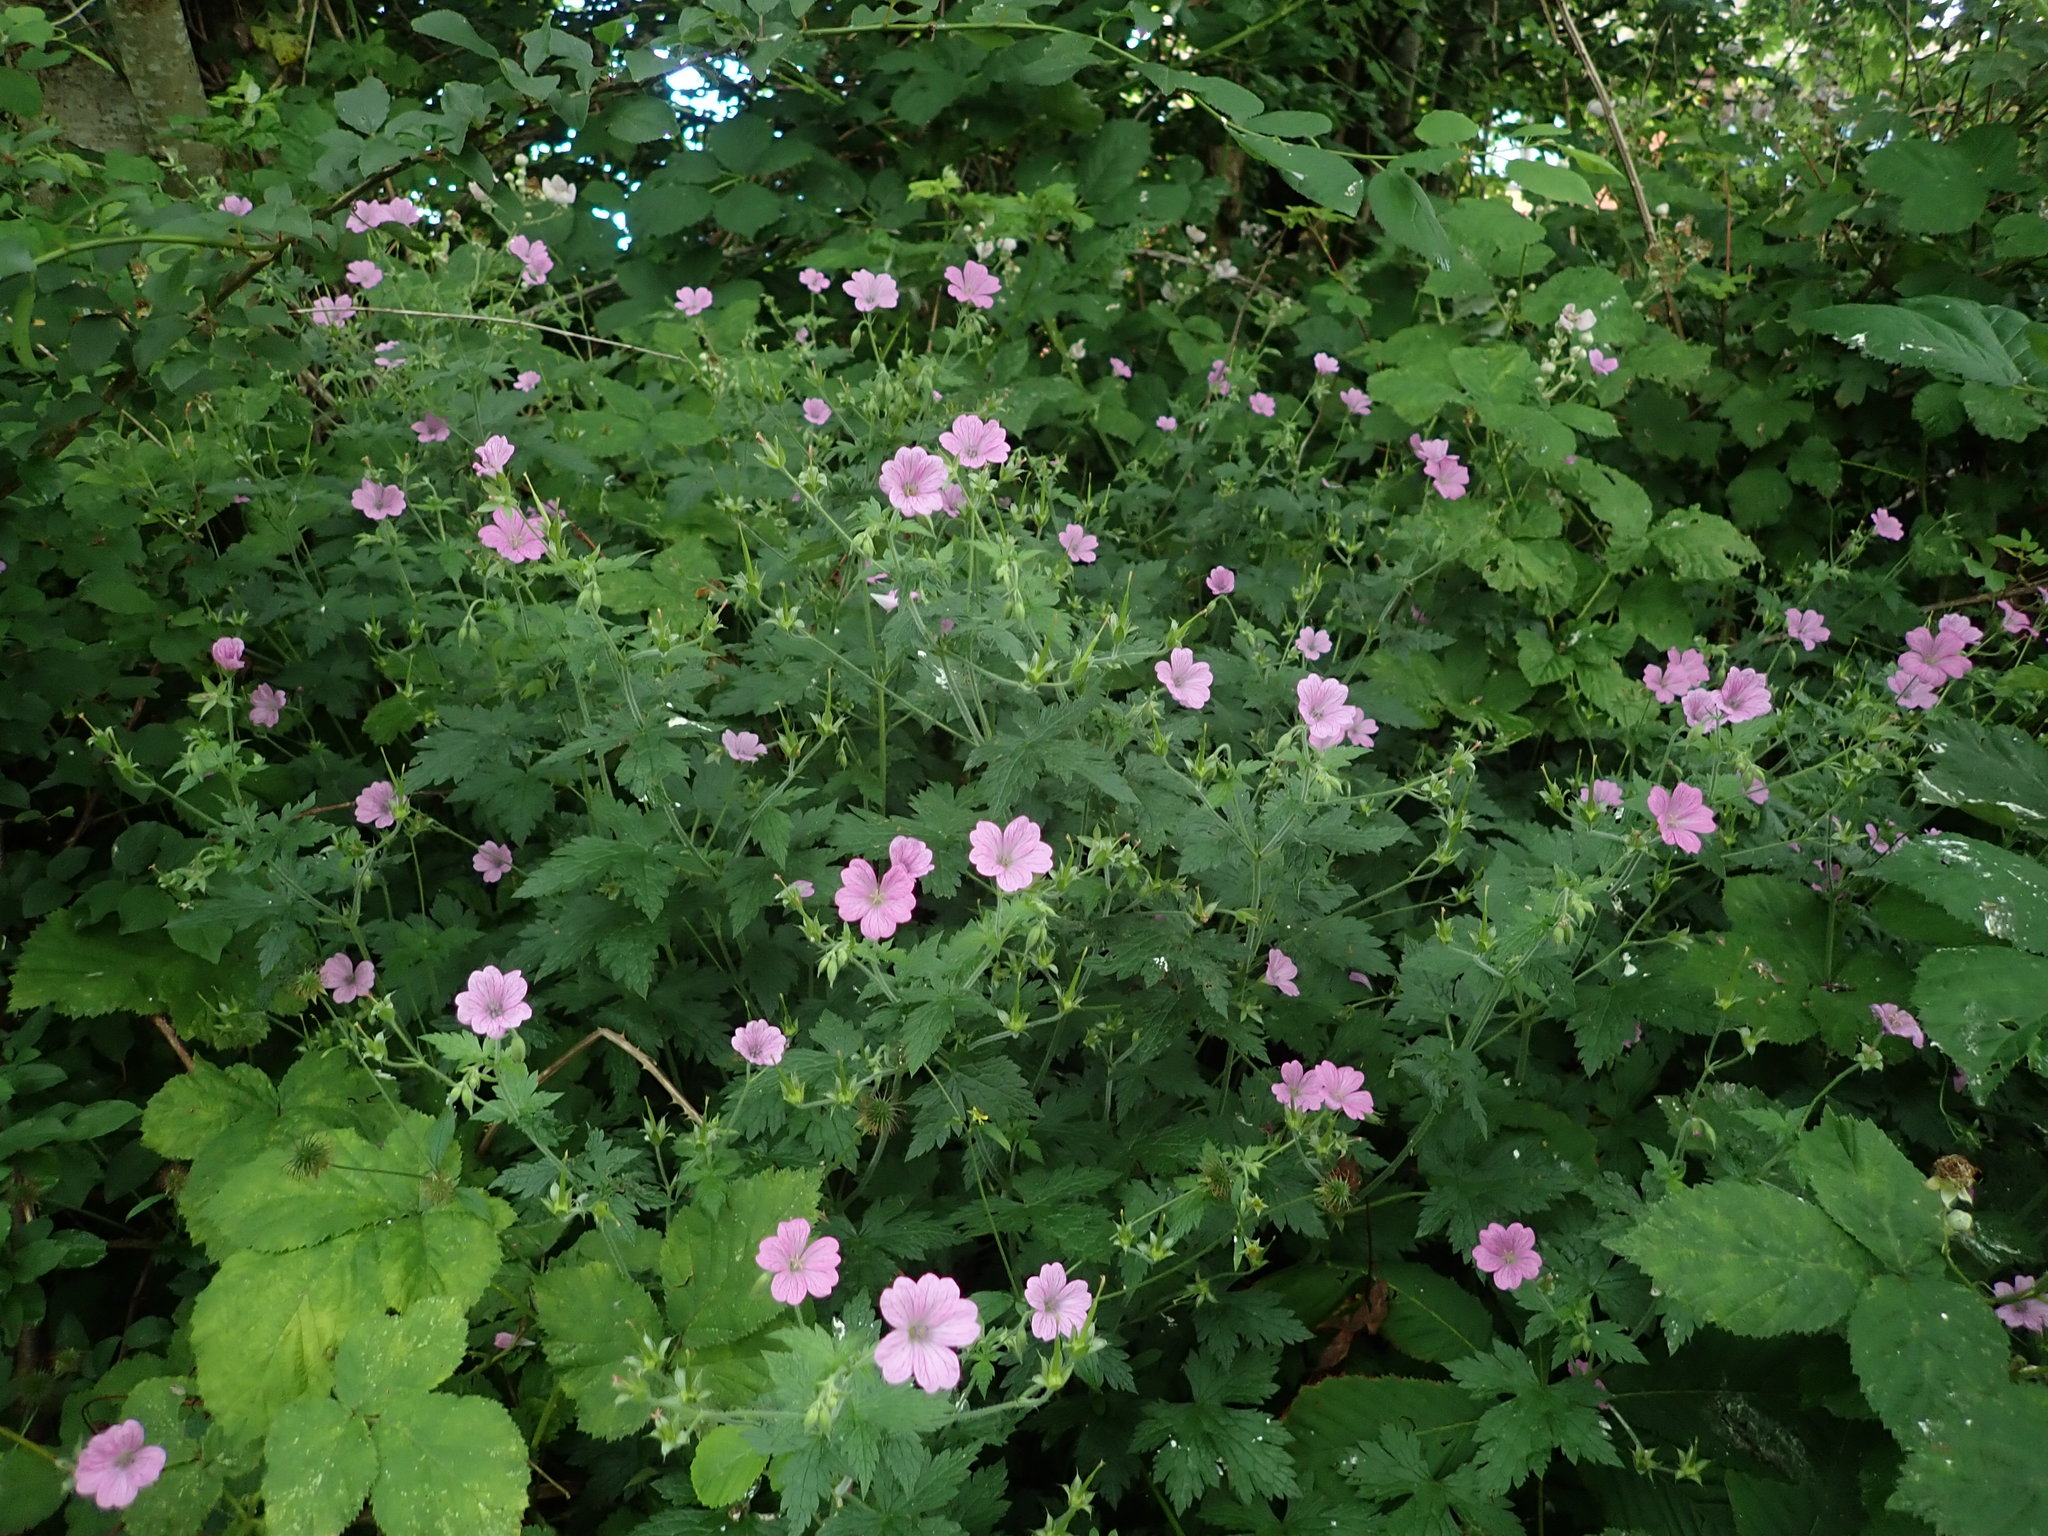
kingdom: Plantae
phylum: Tracheophyta
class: Magnoliopsida
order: Geraniales
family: Geraniaceae
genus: Geranium
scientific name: Geranium oxonianum
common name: Druce's crane's-bill
